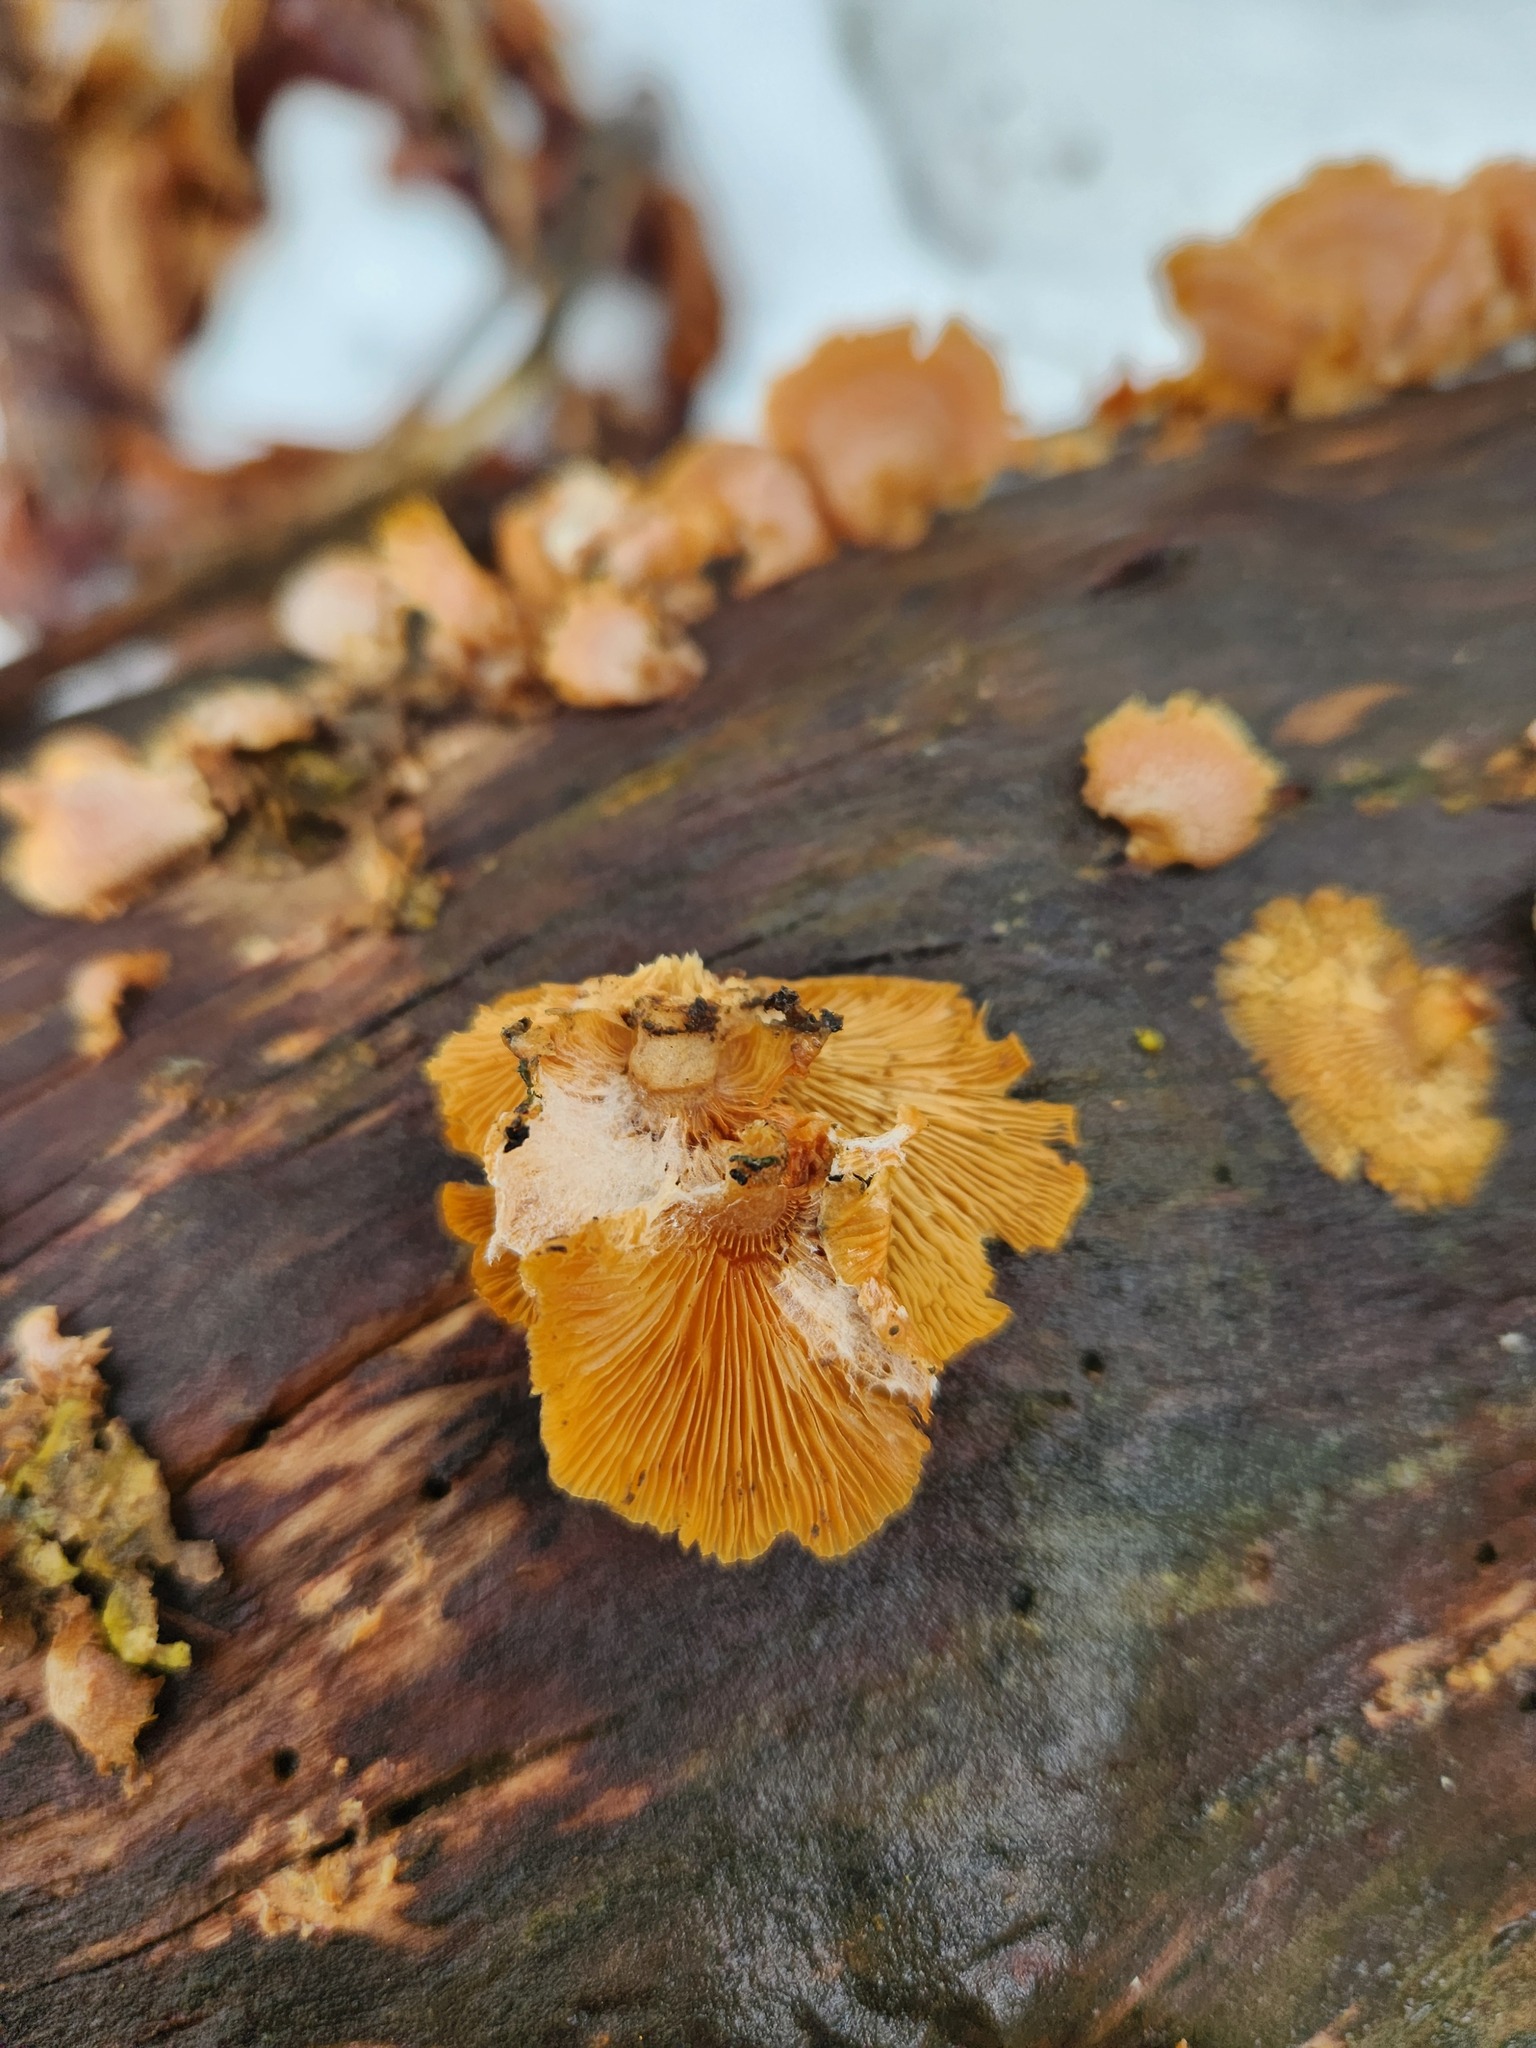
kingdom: Fungi
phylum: Basidiomycota
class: Agaricomycetes
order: Agaricales
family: Phyllotopsidaceae
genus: Phyllotopsis
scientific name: Phyllotopsis nidulans
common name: Orange mock oyster
